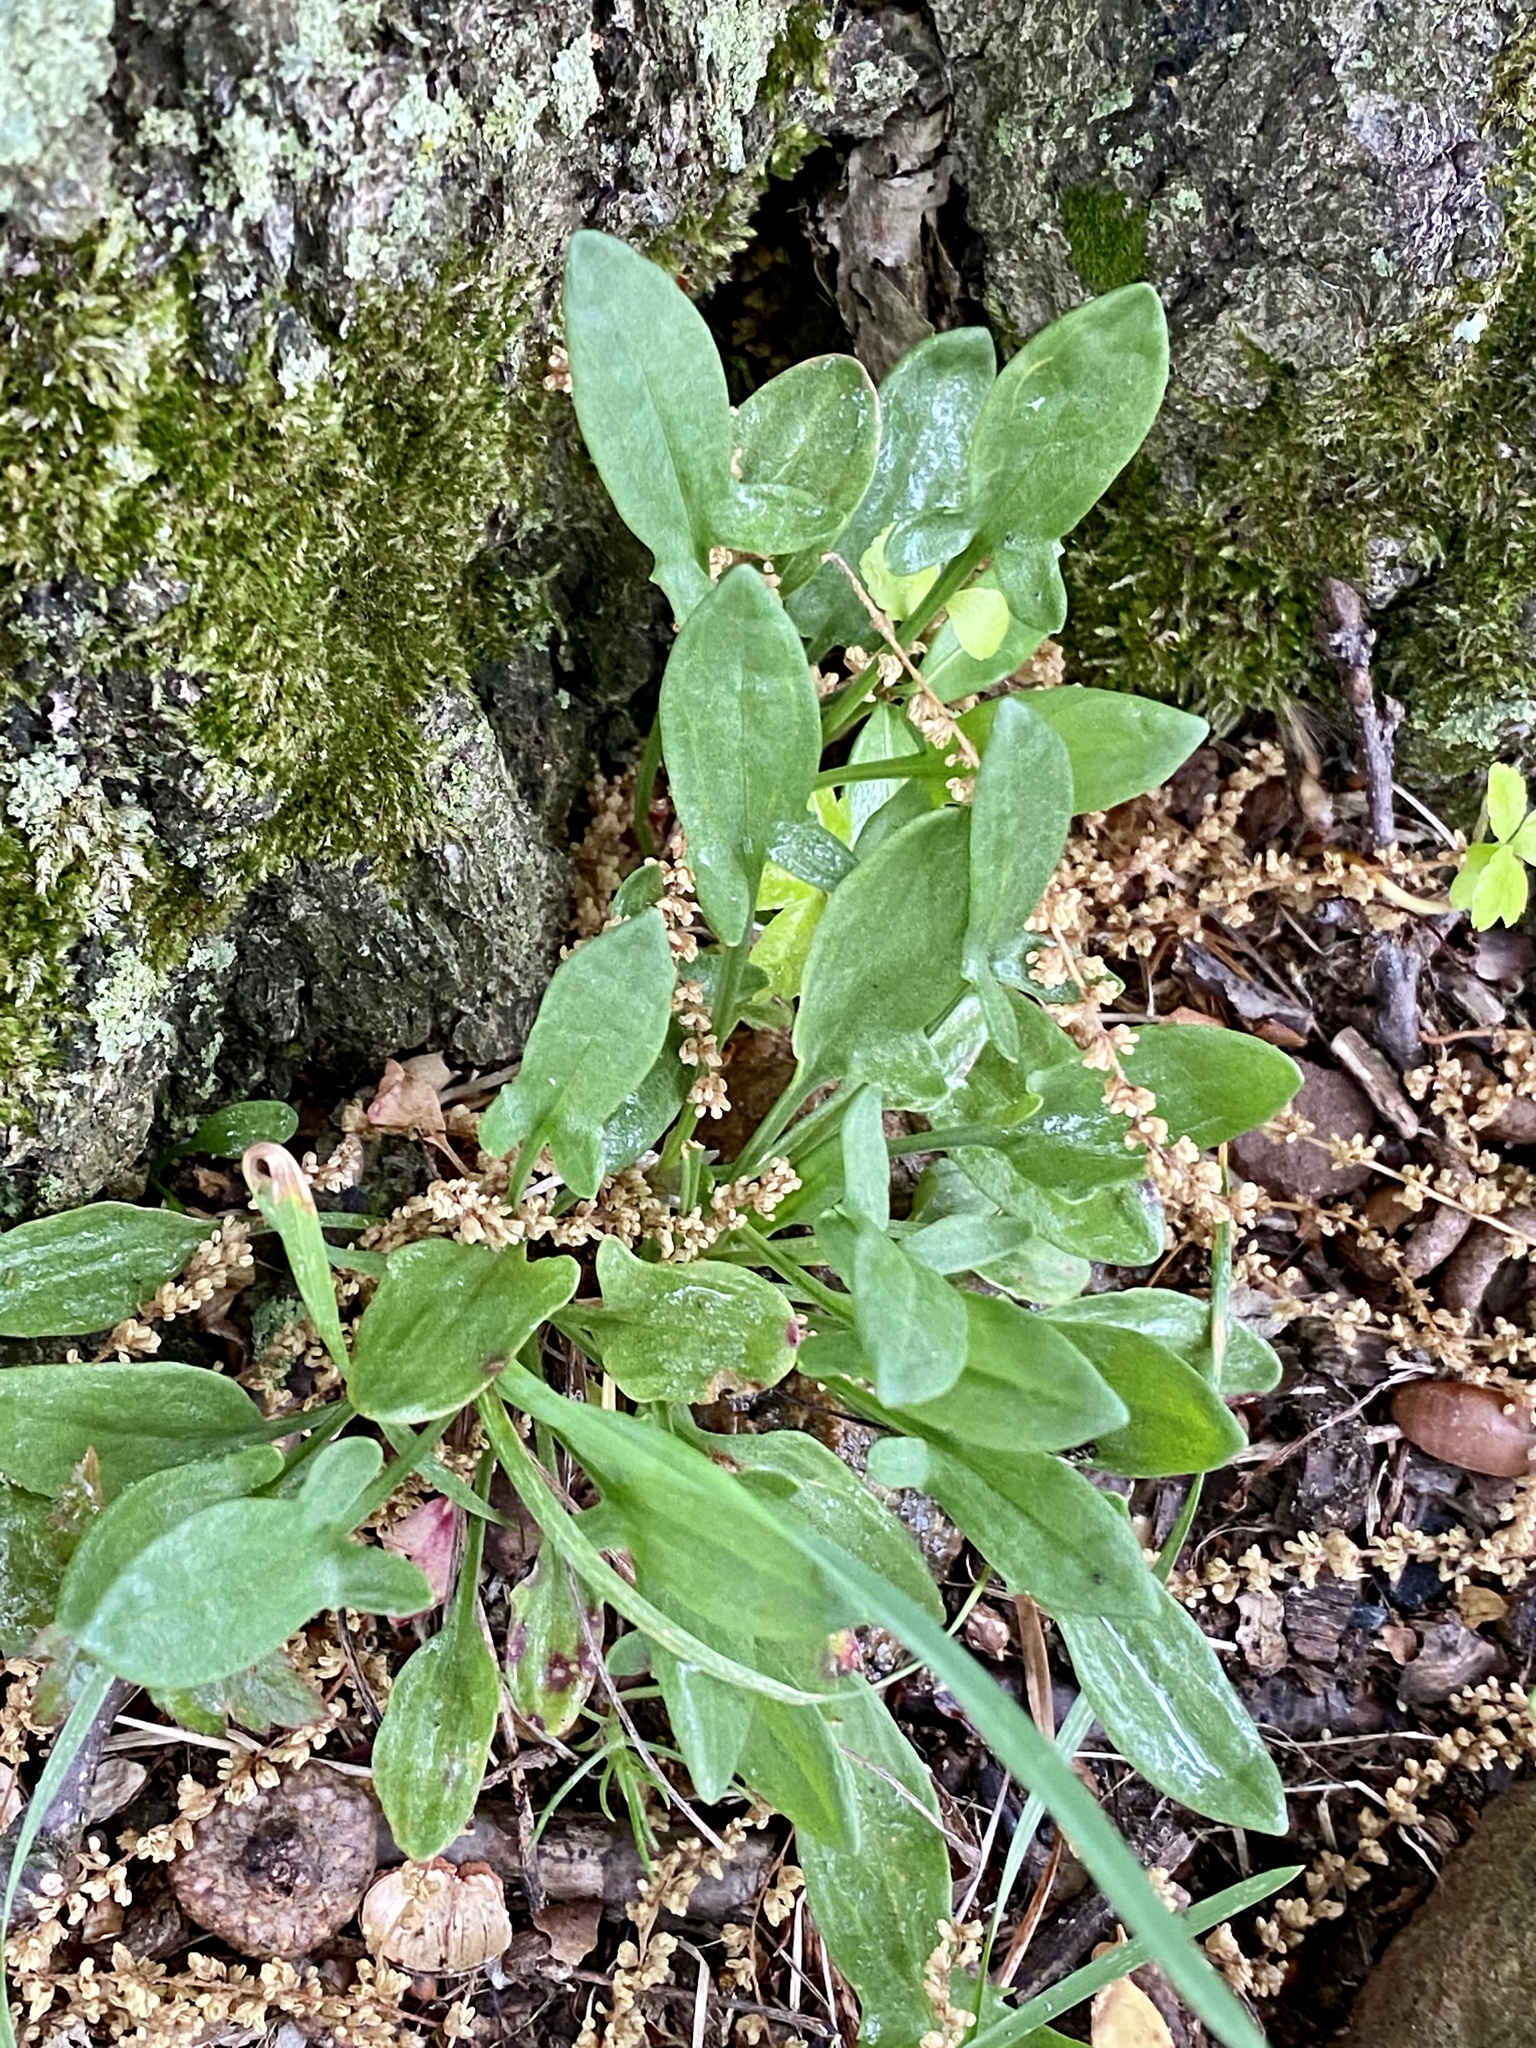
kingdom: Plantae
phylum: Tracheophyta
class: Magnoliopsida
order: Caryophyllales
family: Polygonaceae
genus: Rumex
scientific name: Rumex acetosella
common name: Common sheep sorrel
